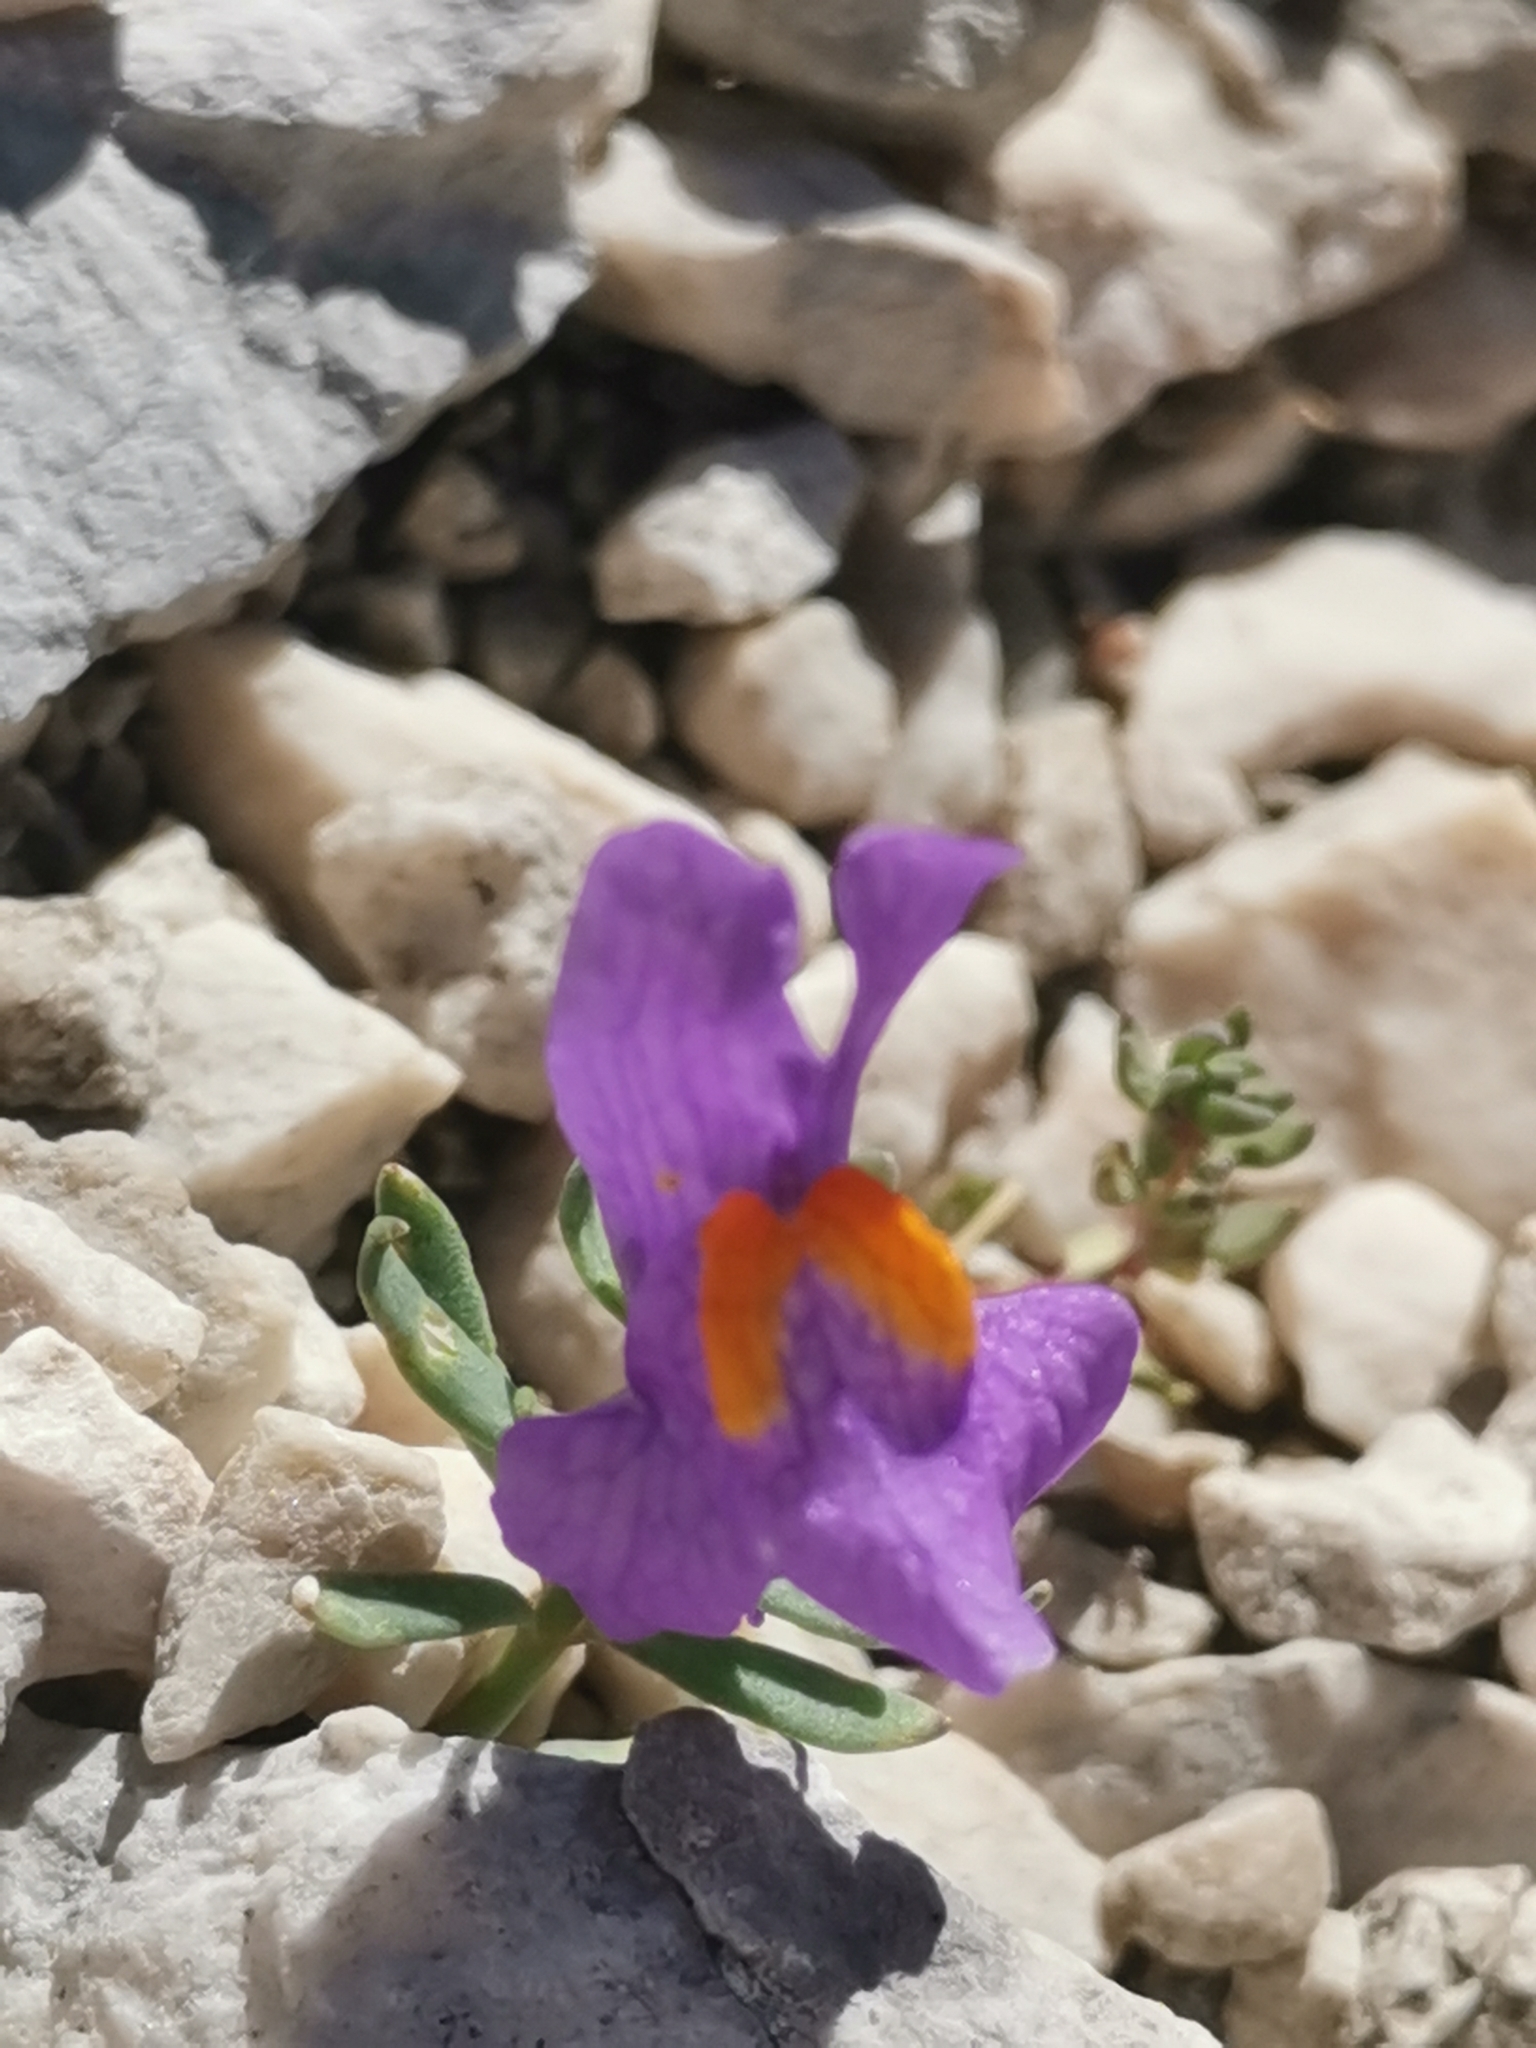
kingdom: Plantae
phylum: Tracheophyta
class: Magnoliopsida
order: Lamiales
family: Plantaginaceae
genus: Linaria
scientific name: Linaria alpina
